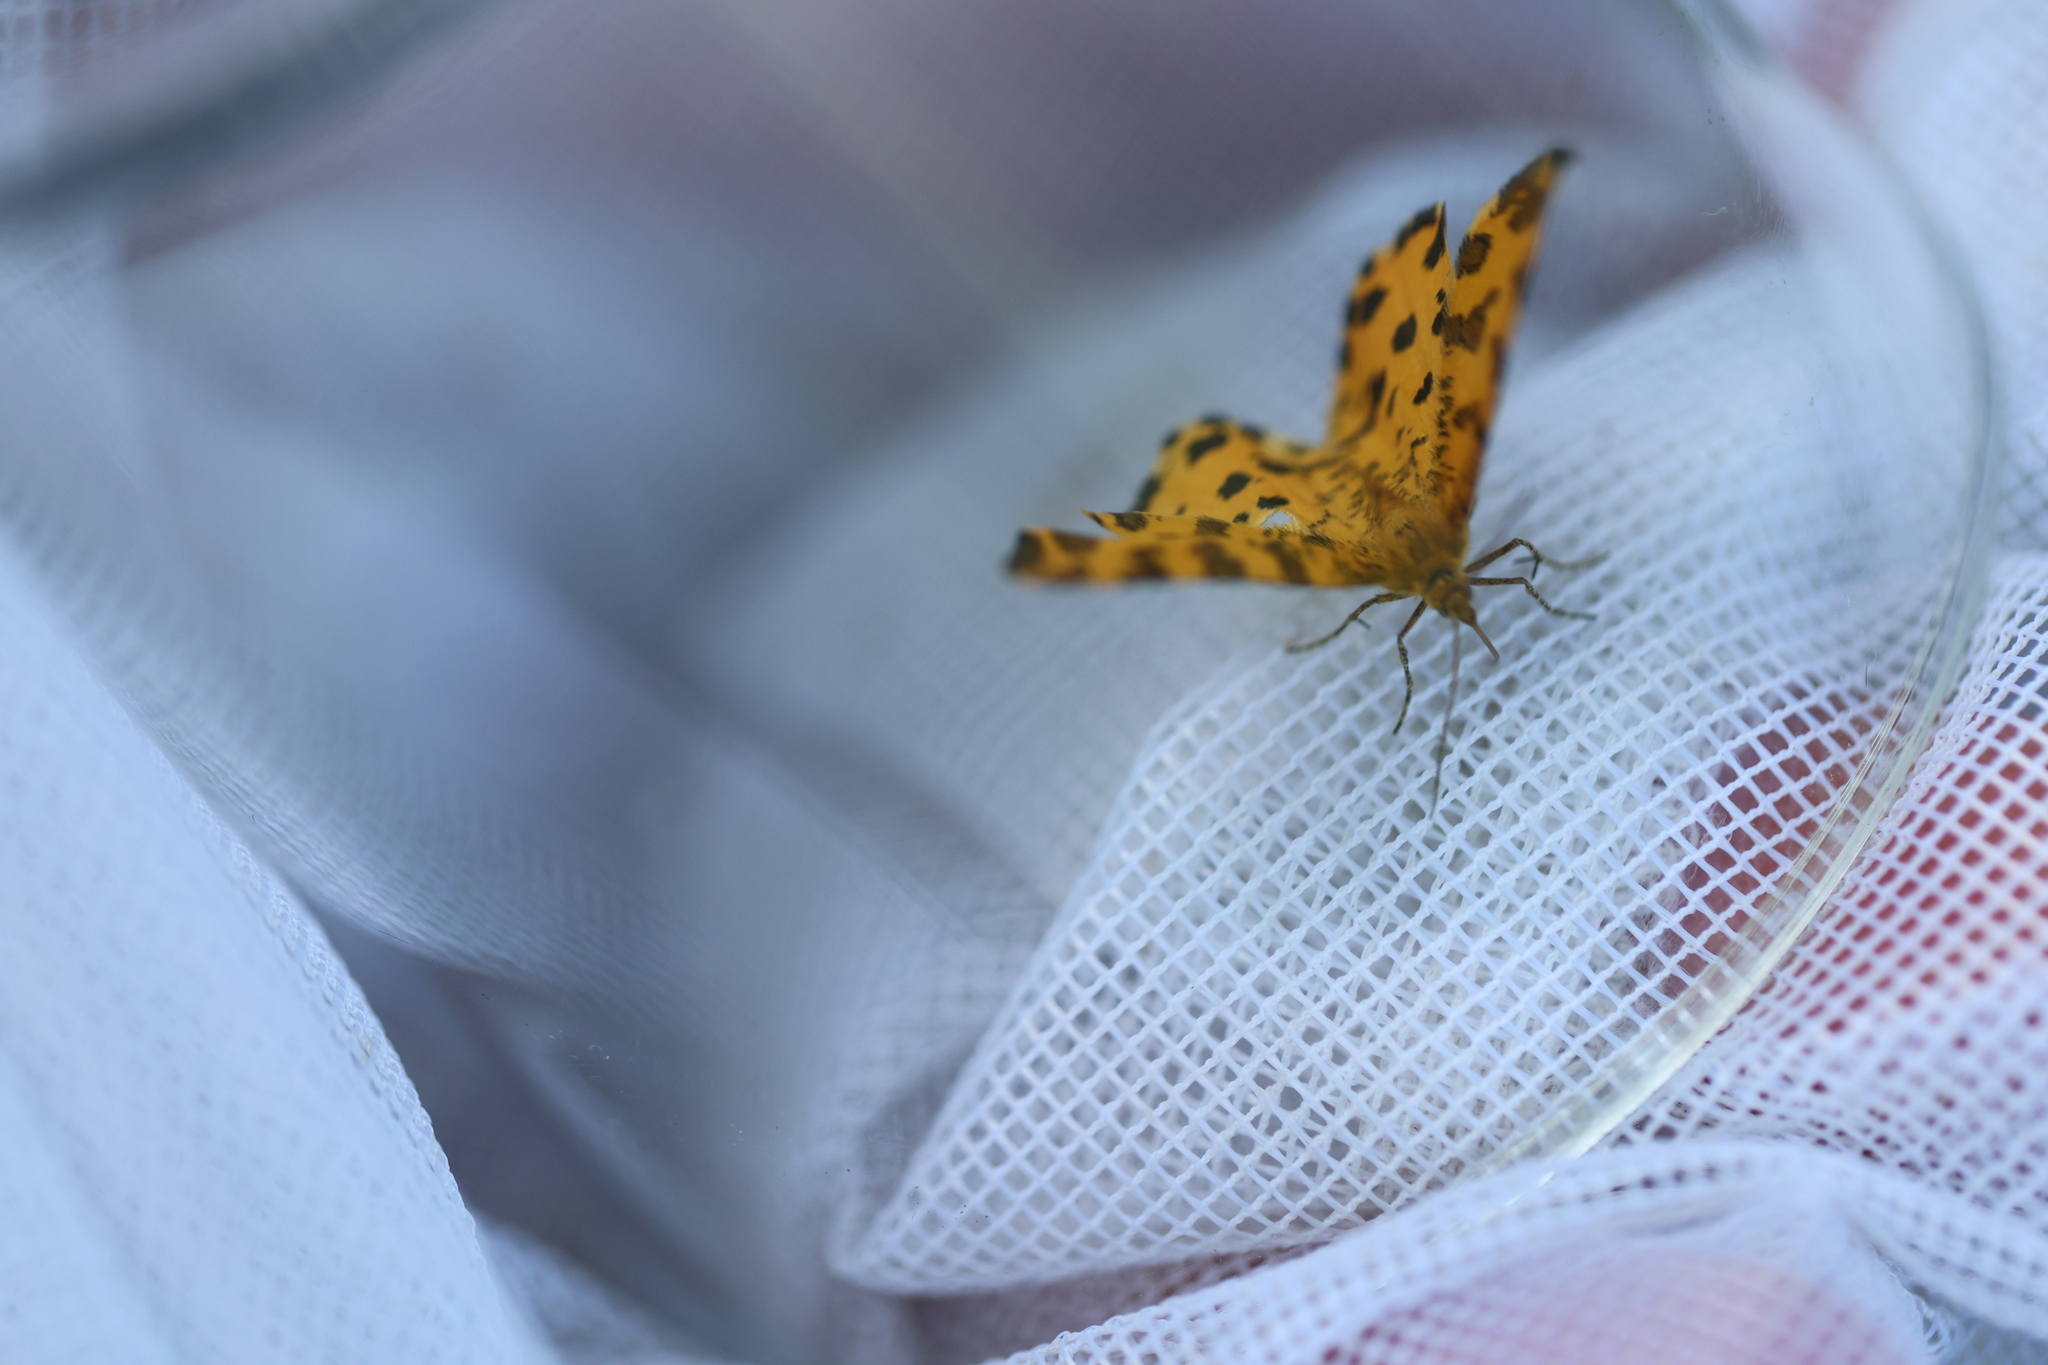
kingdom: Animalia
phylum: Arthropoda
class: Insecta
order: Lepidoptera
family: Geometridae
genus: Pseudopanthera
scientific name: Pseudopanthera macularia
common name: Speckled yellow
